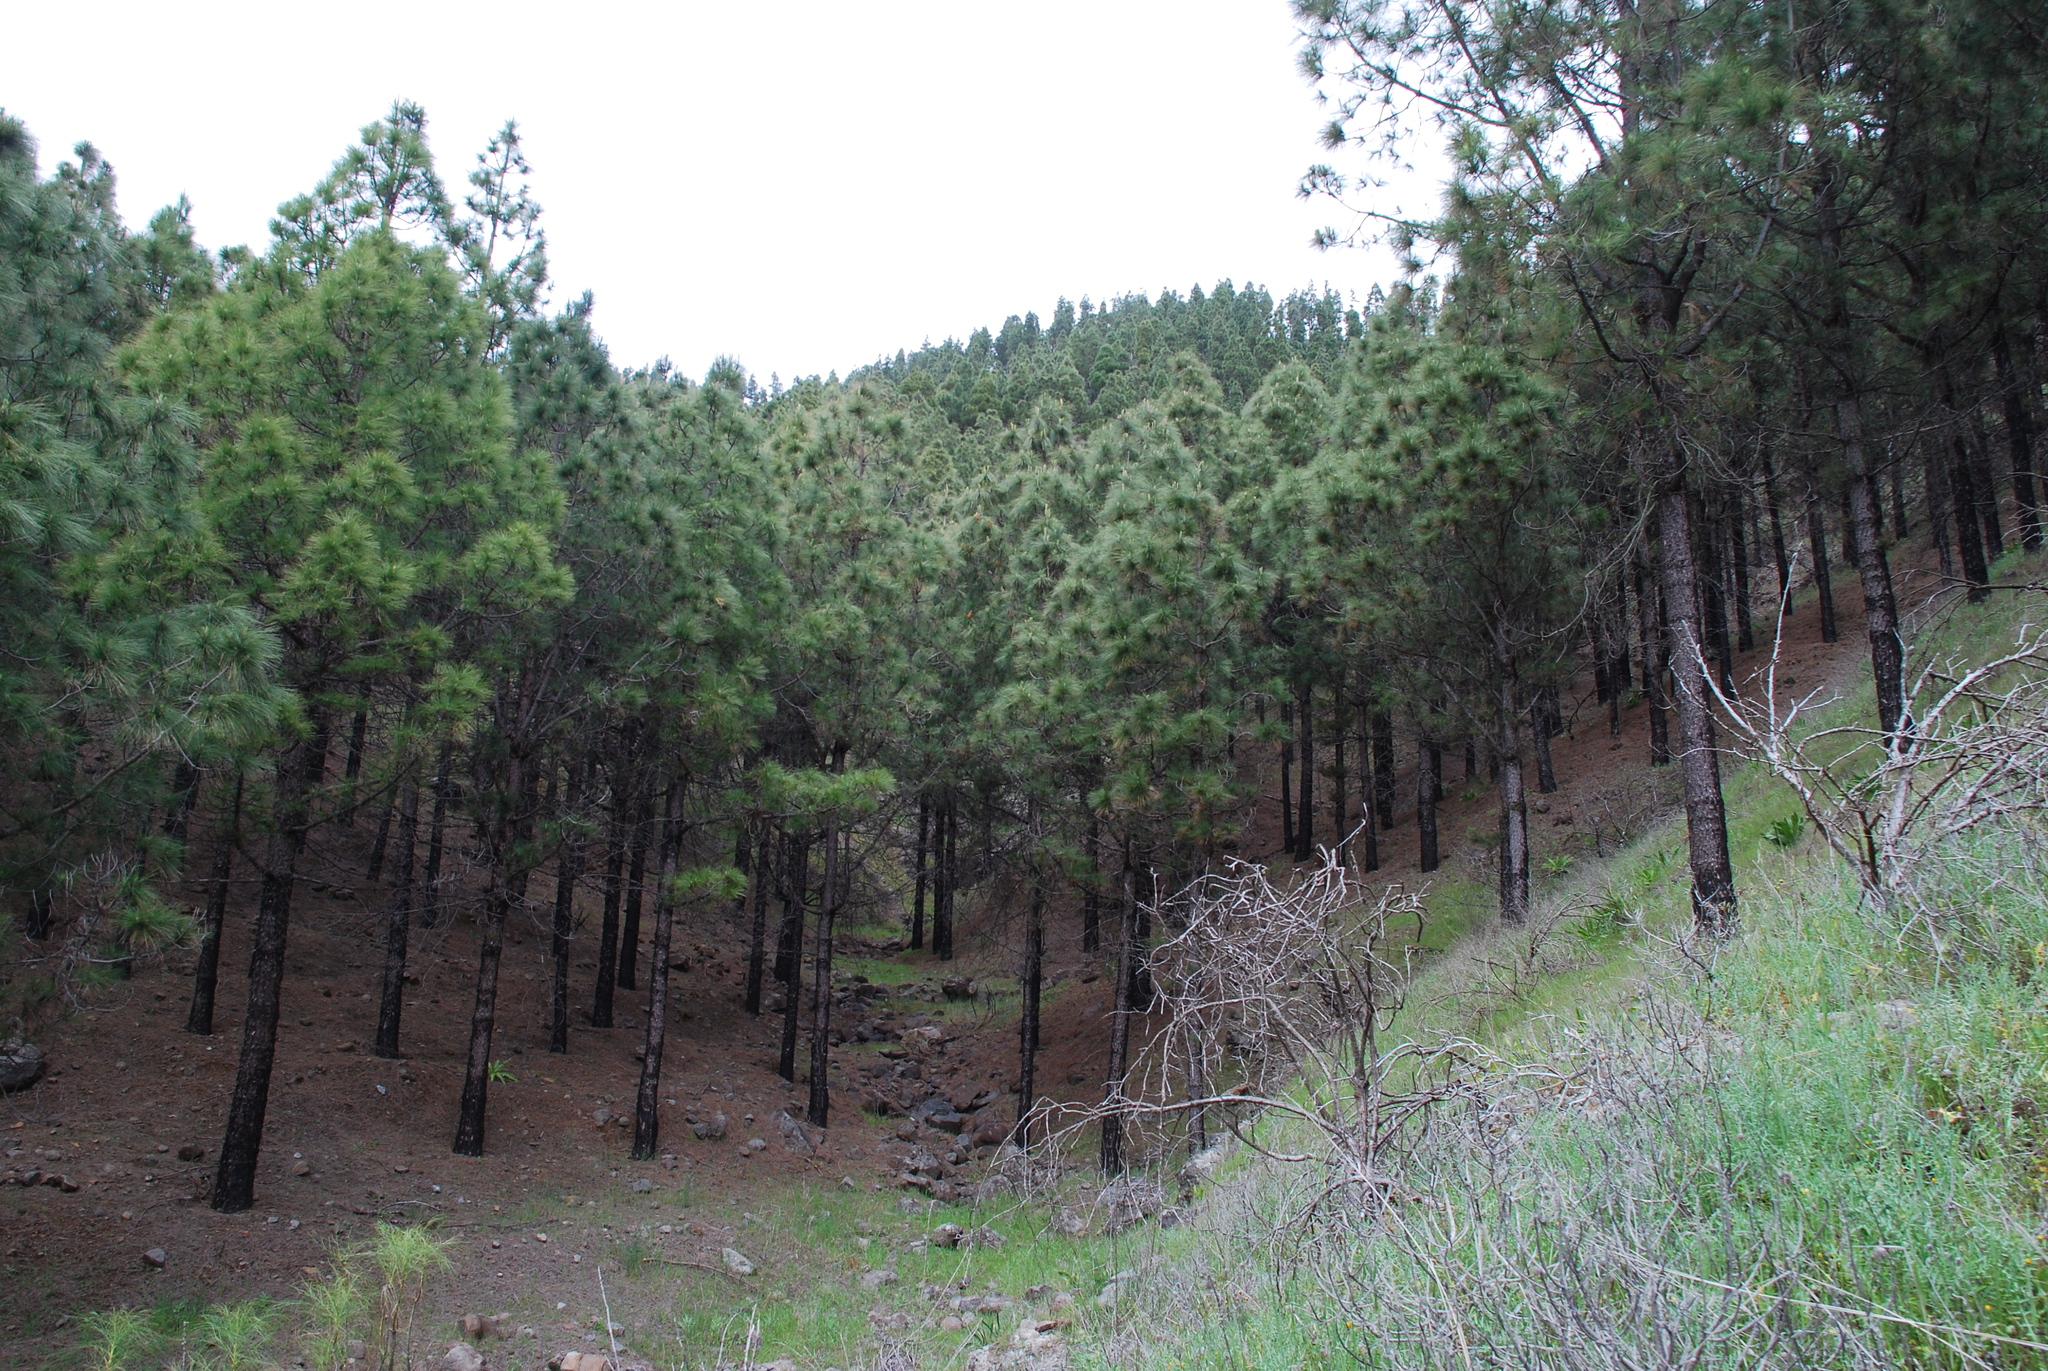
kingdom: Plantae
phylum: Tracheophyta
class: Pinopsida
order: Pinales
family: Pinaceae
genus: Pinus
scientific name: Pinus canariensis
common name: Canary islands pine
